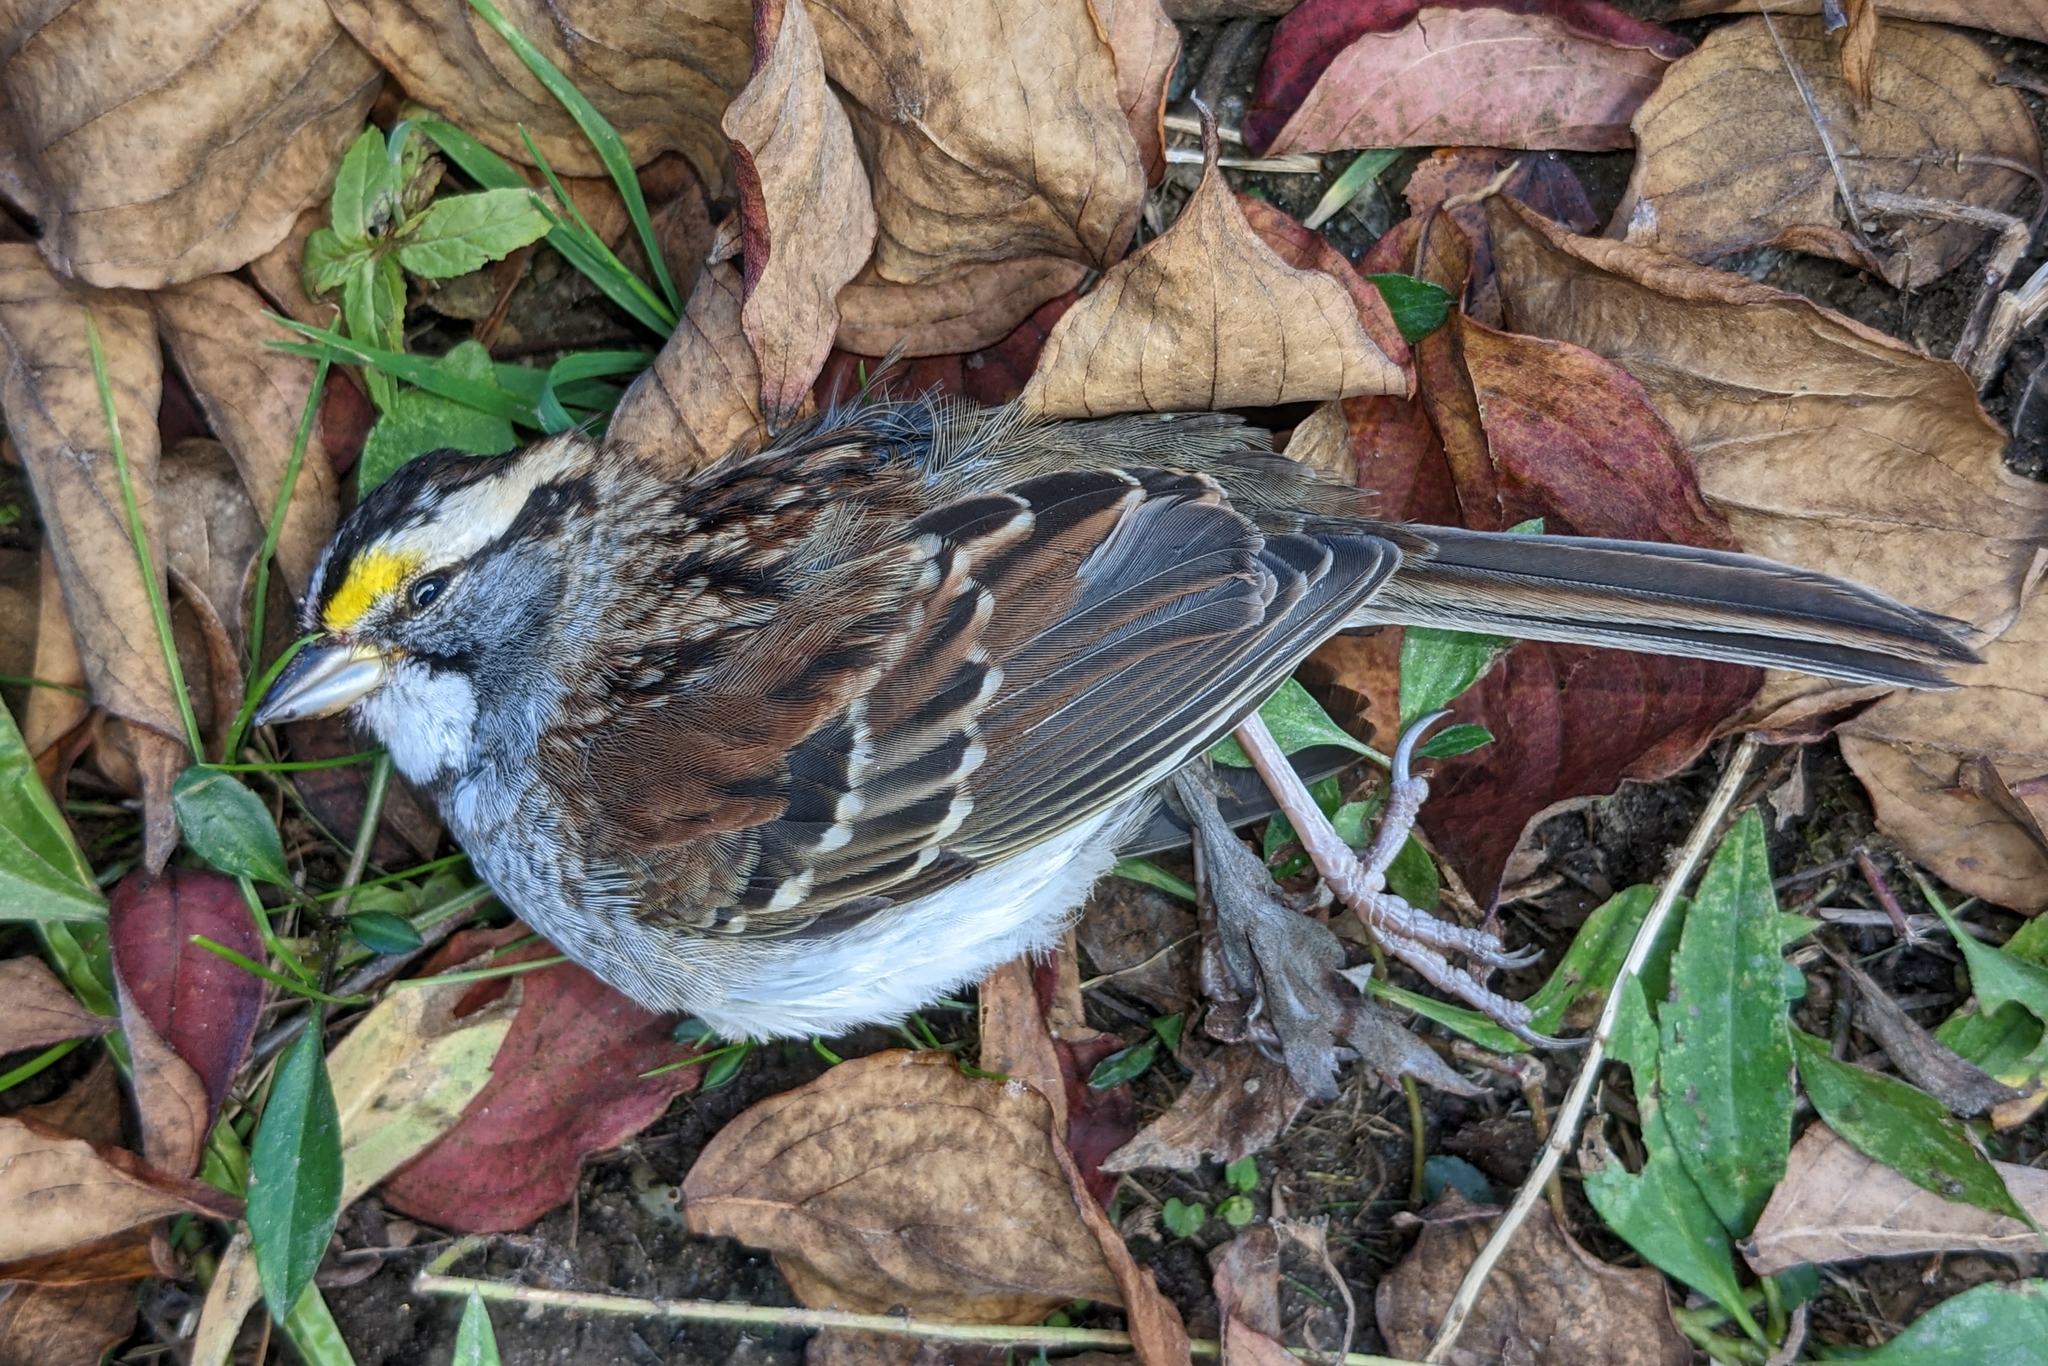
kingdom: Animalia
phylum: Chordata
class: Aves
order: Passeriformes
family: Passerellidae
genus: Zonotrichia
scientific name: Zonotrichia albicollis
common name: White-throated sparrow
